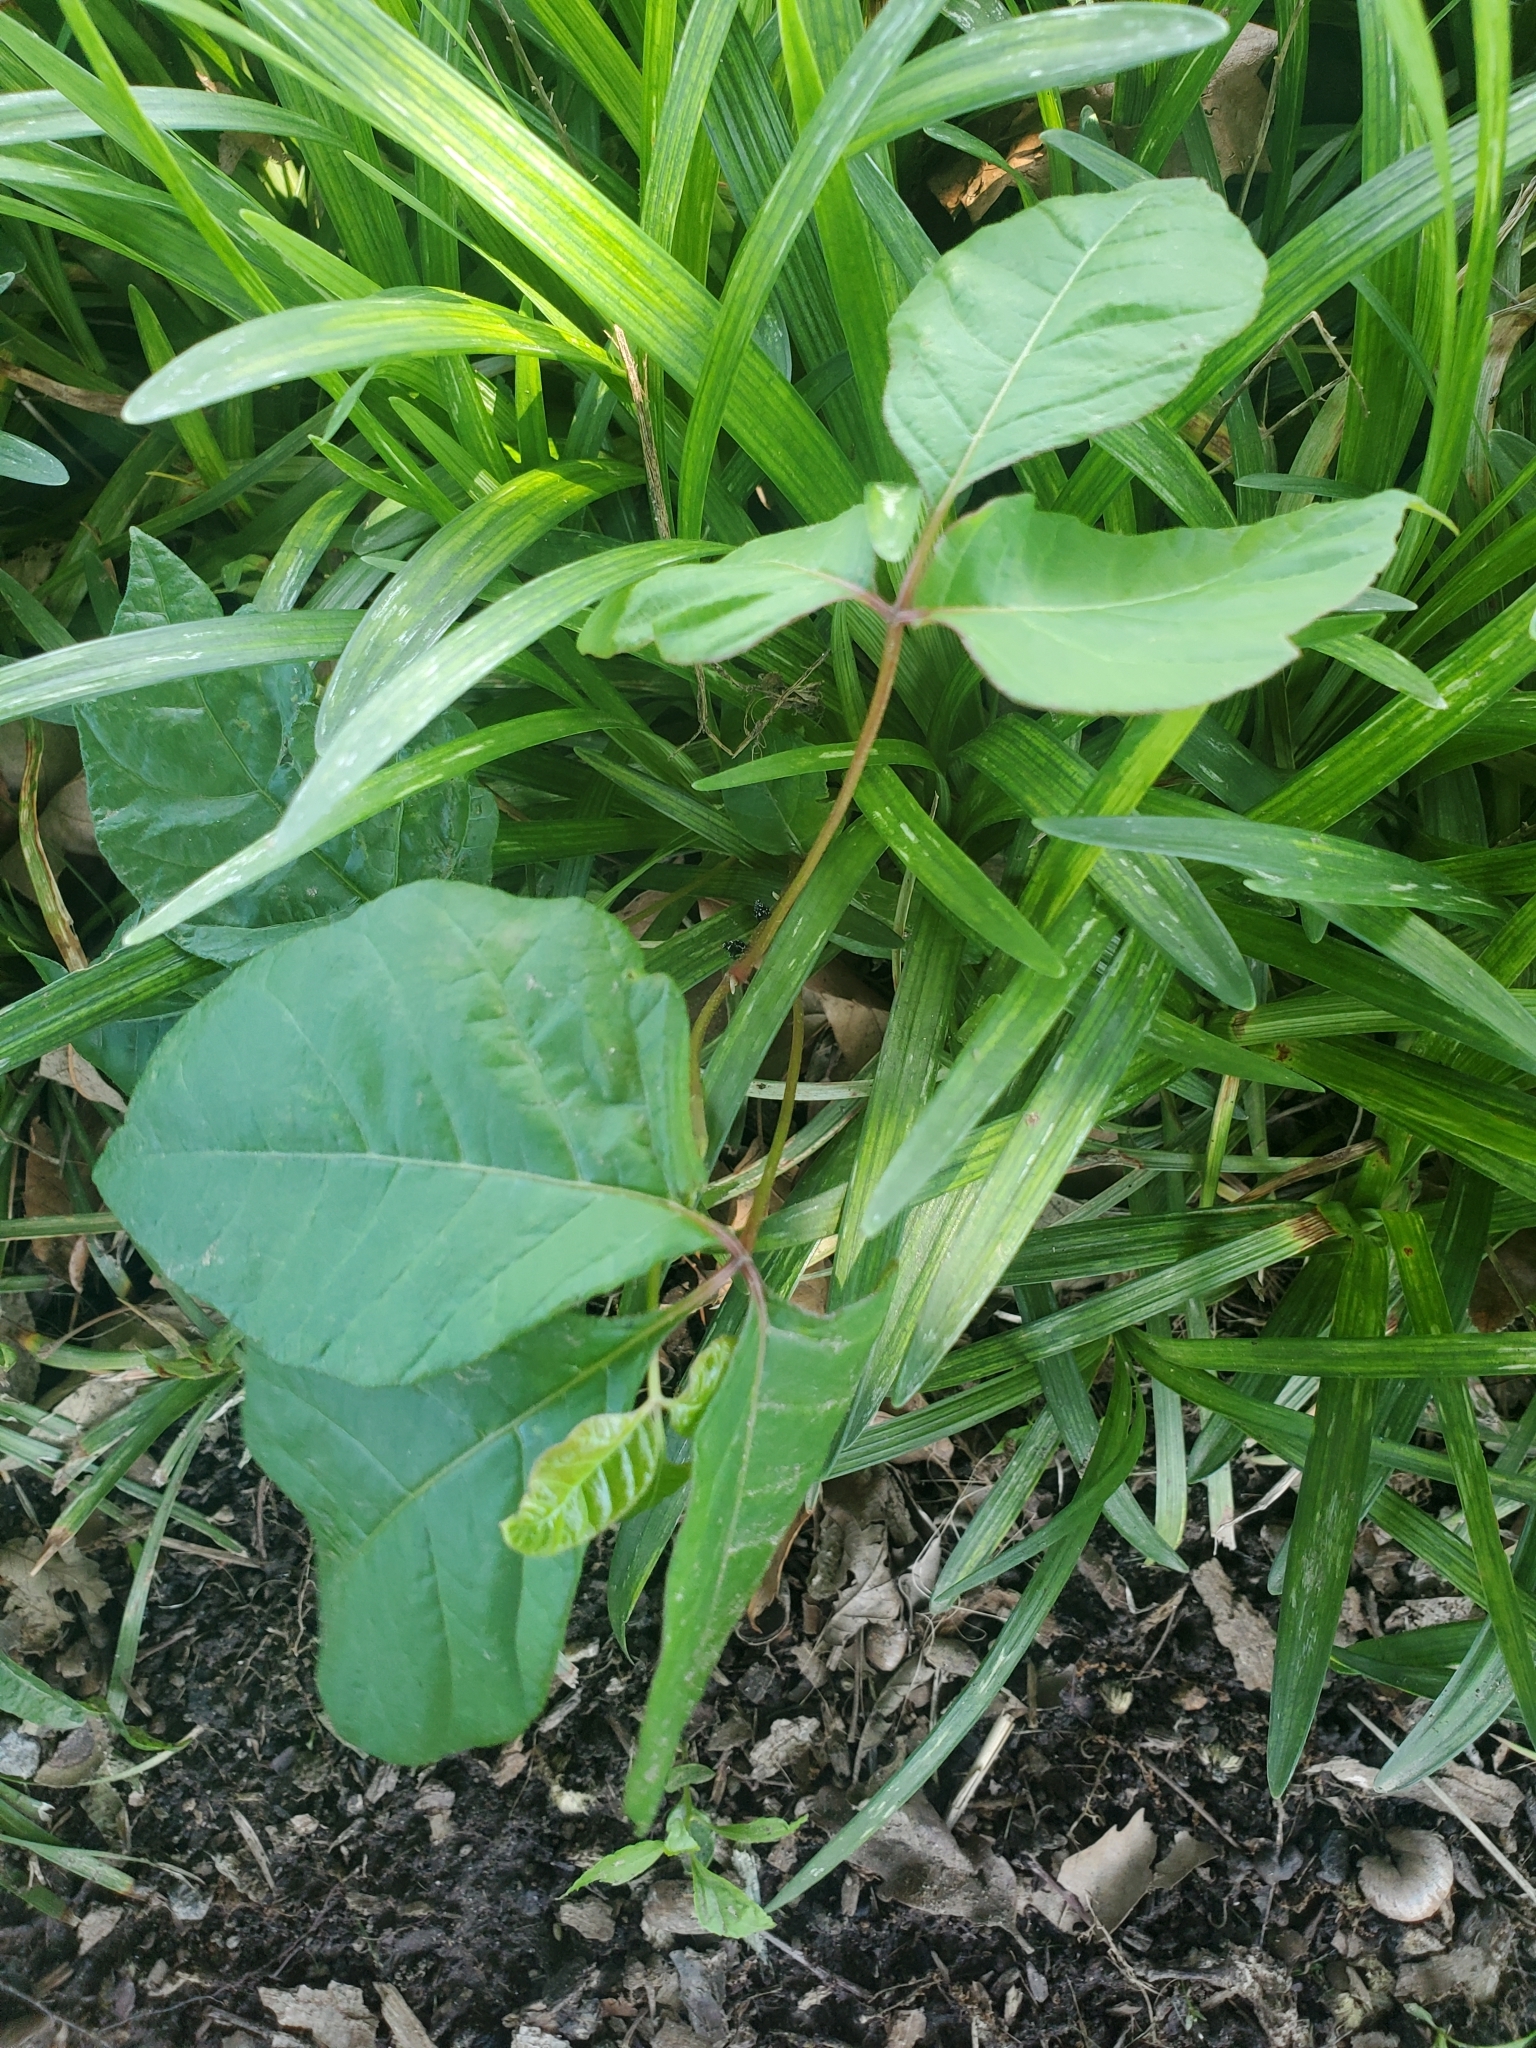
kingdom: Plantae
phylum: Tracheophyta
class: Magnoliopsida
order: Sapindales
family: Anacardiaceae
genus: Toxicodendron
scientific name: Toxicodendron radicans
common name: Poison ivy
